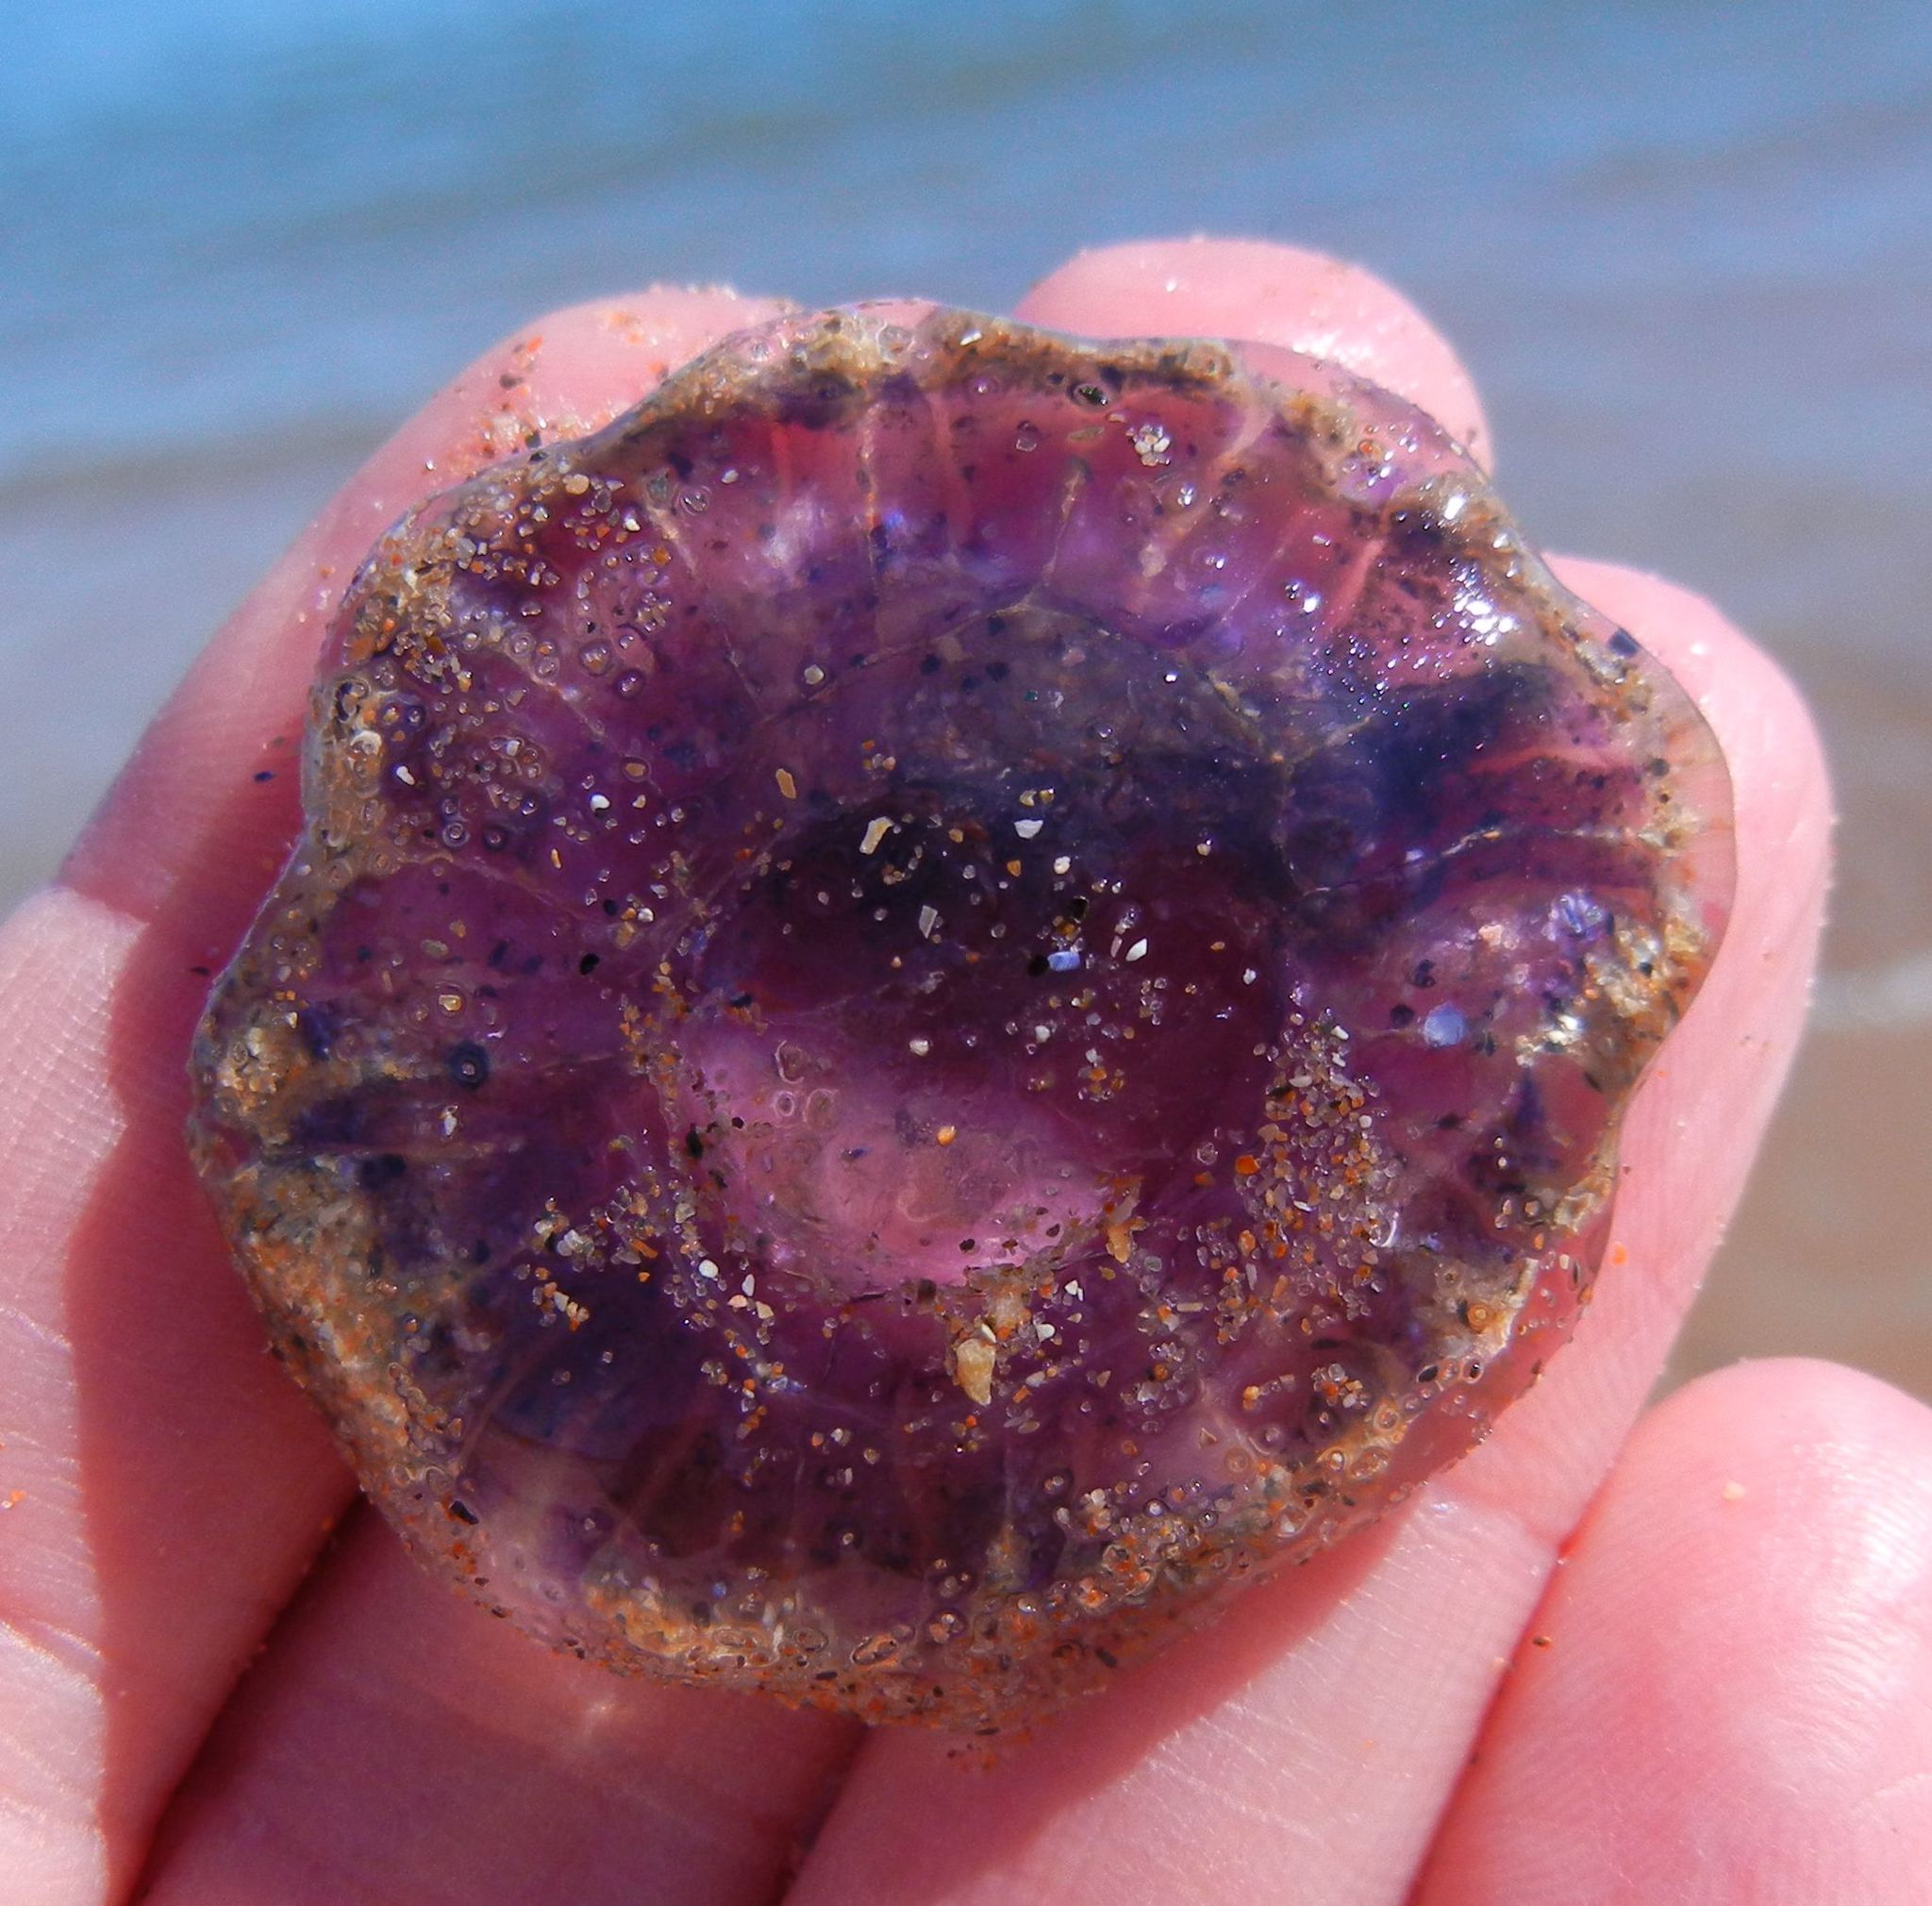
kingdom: Animalia
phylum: Cnidaria
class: Scyphozoa
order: Semaeostomeae
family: Cyaneidae
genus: Cyanea
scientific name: Cyanea lamarckii
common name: Blue jellyfish
